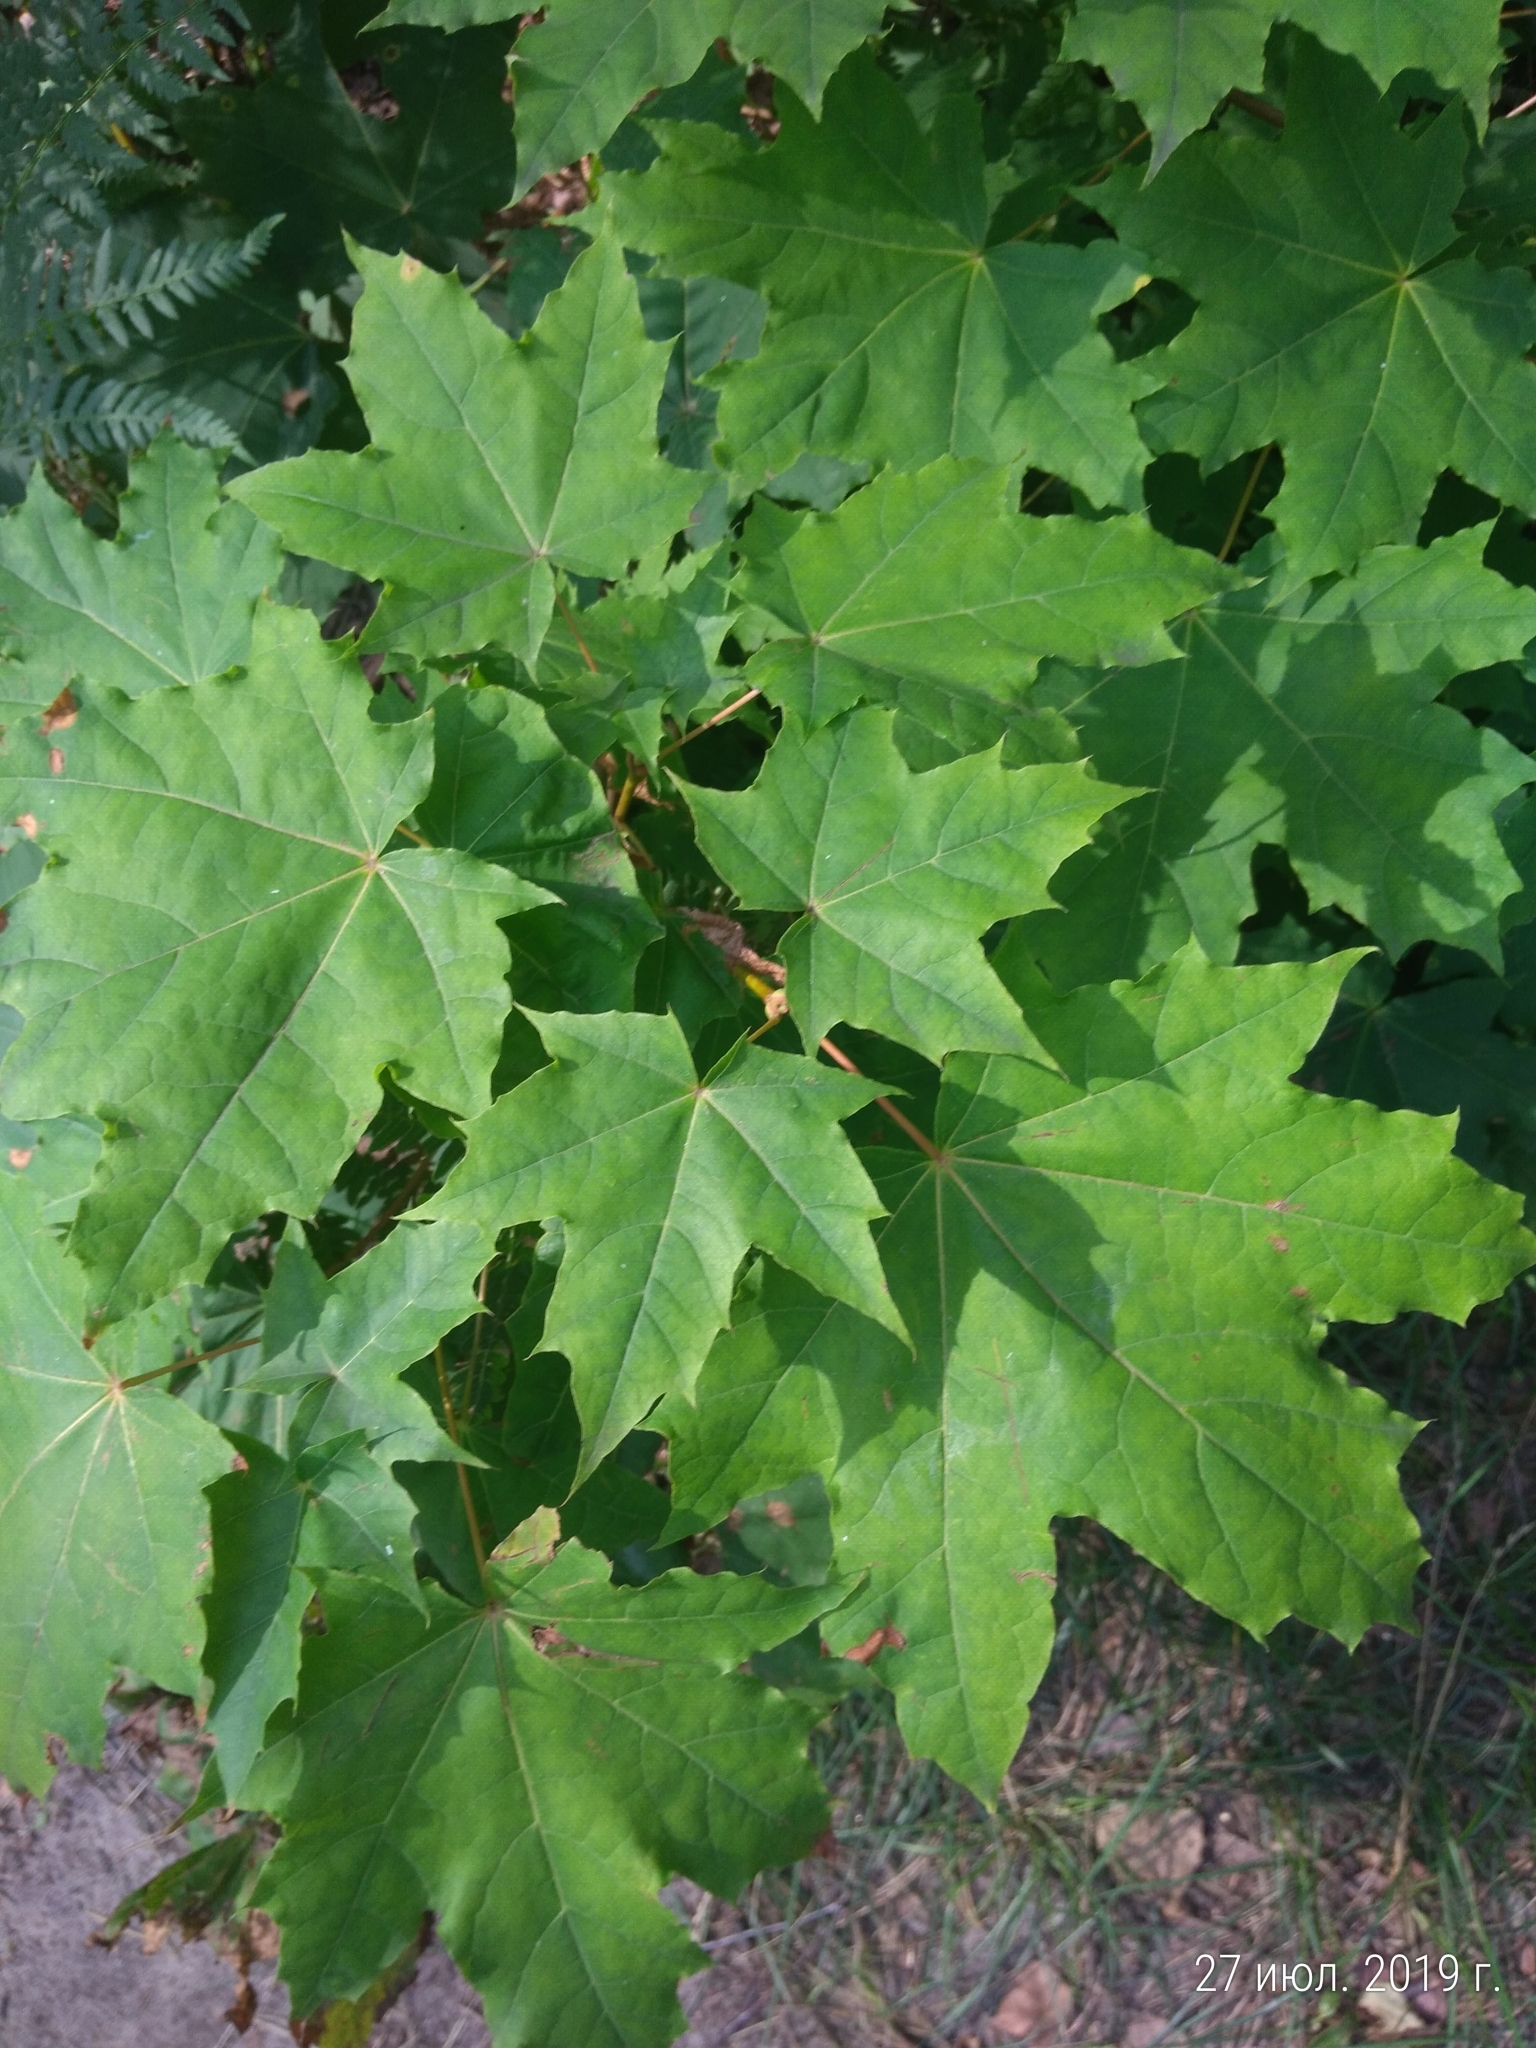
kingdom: Plantae
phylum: Tracheophyta
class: Magnoliopsida
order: Sapindales
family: Sapindaceae
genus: Acer
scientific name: Acer platanoides
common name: Norway maple
